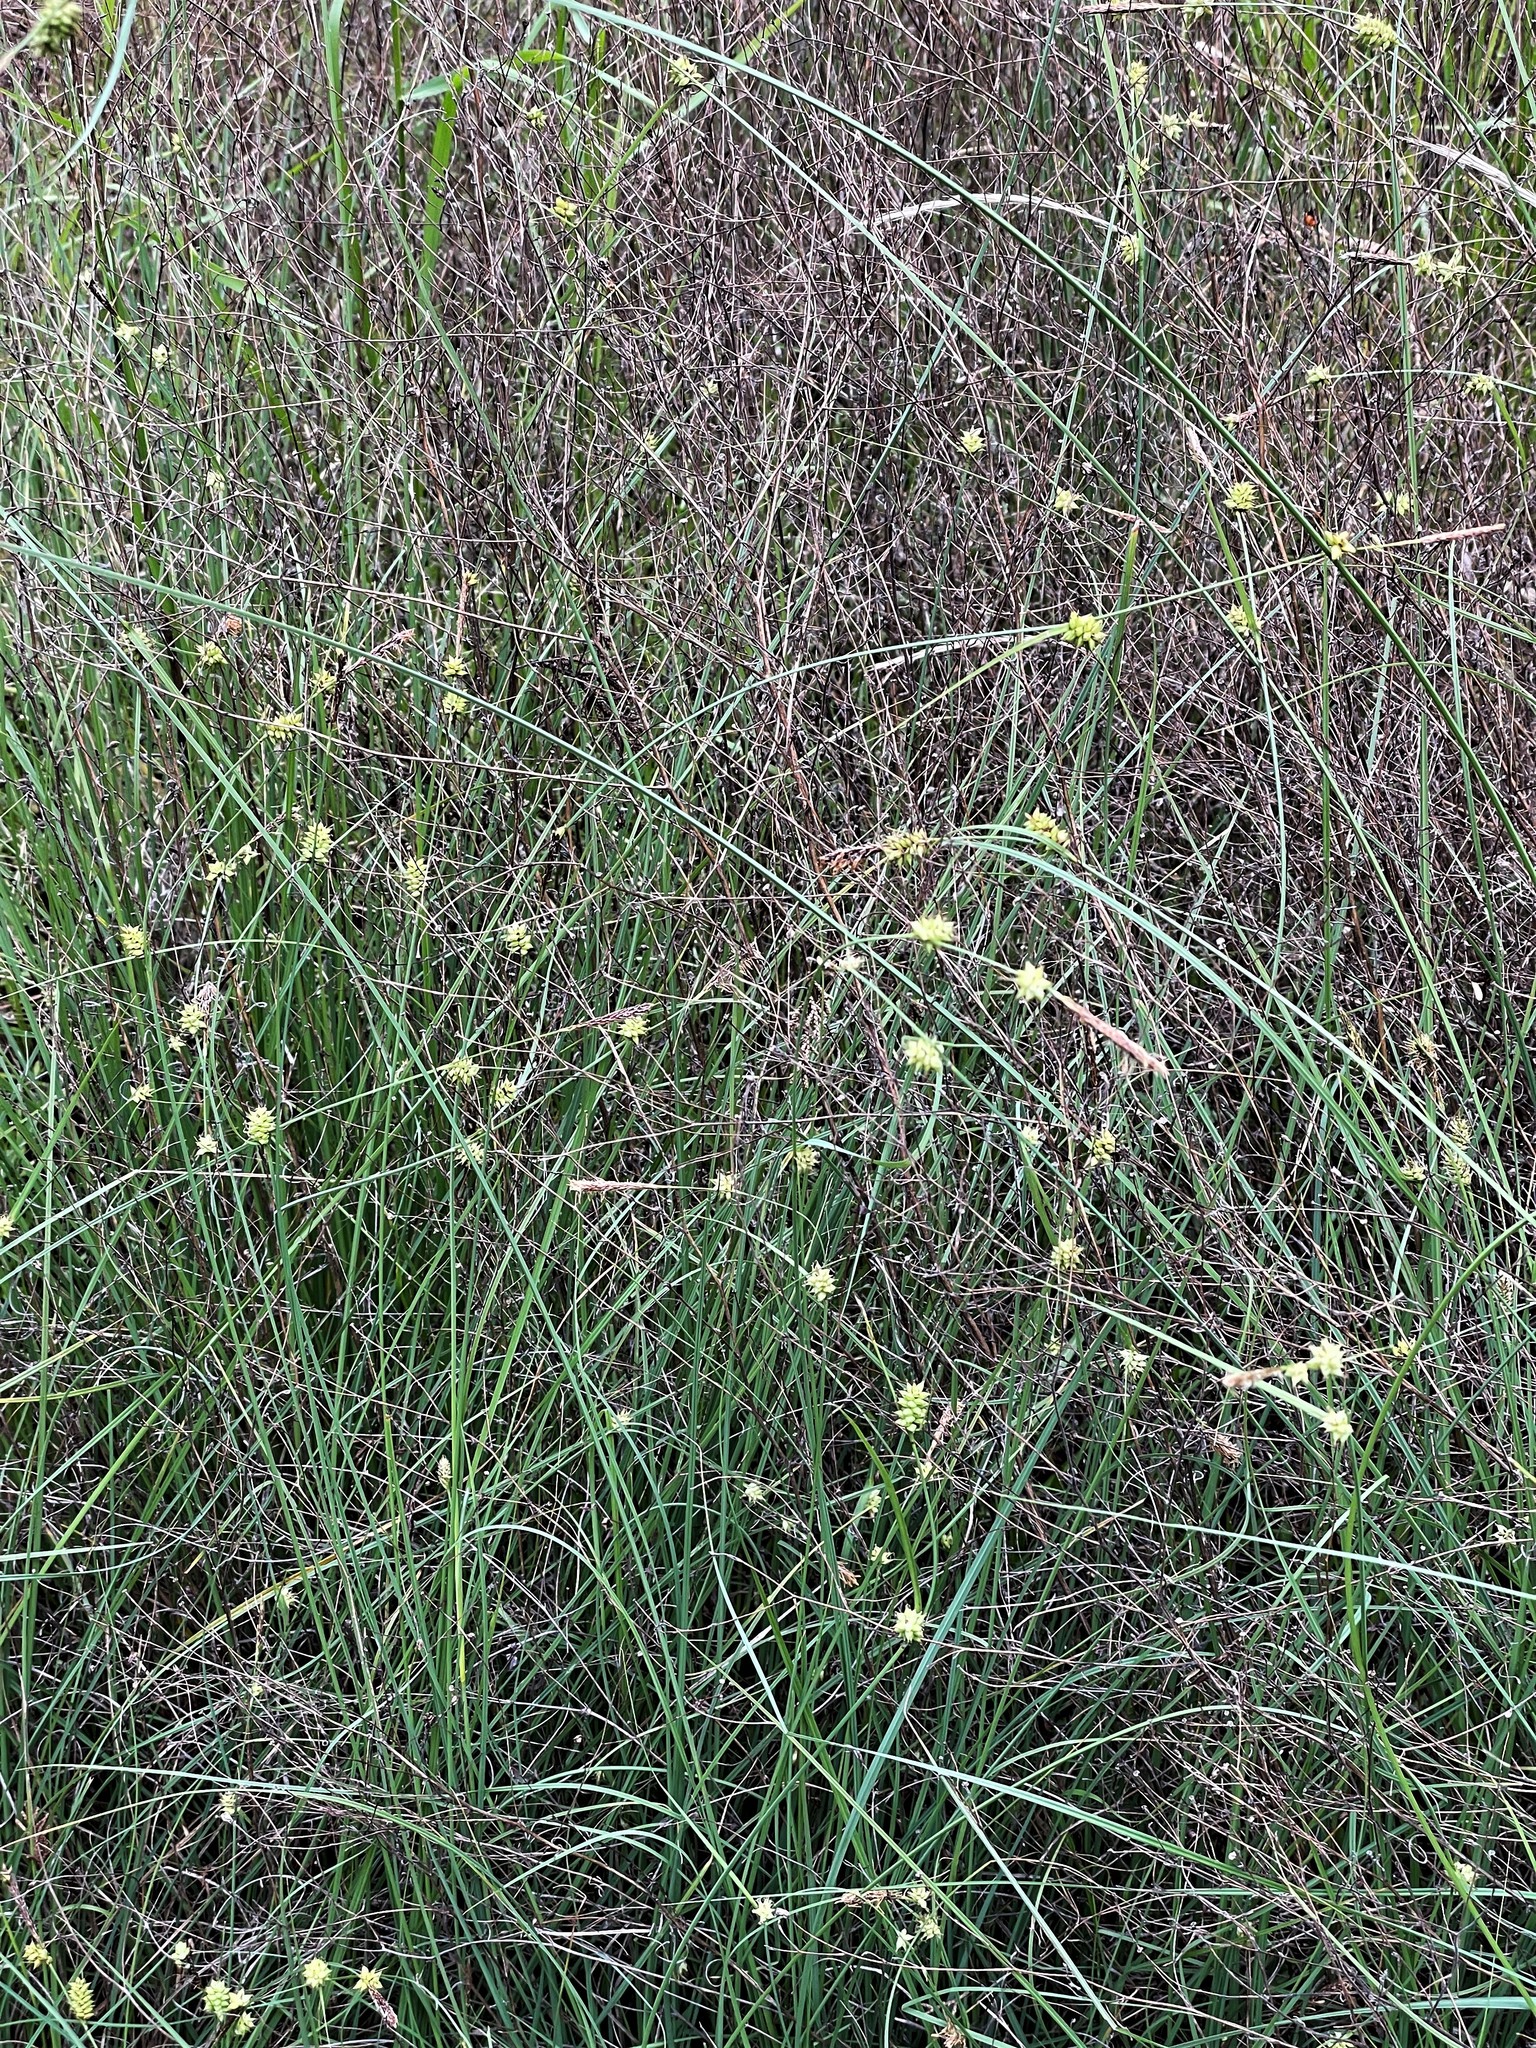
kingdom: Plantae
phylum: Tracheophyta
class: Liliopsida
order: Poales
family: Cyperaceae
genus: Carex
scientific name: Carex serratodens
